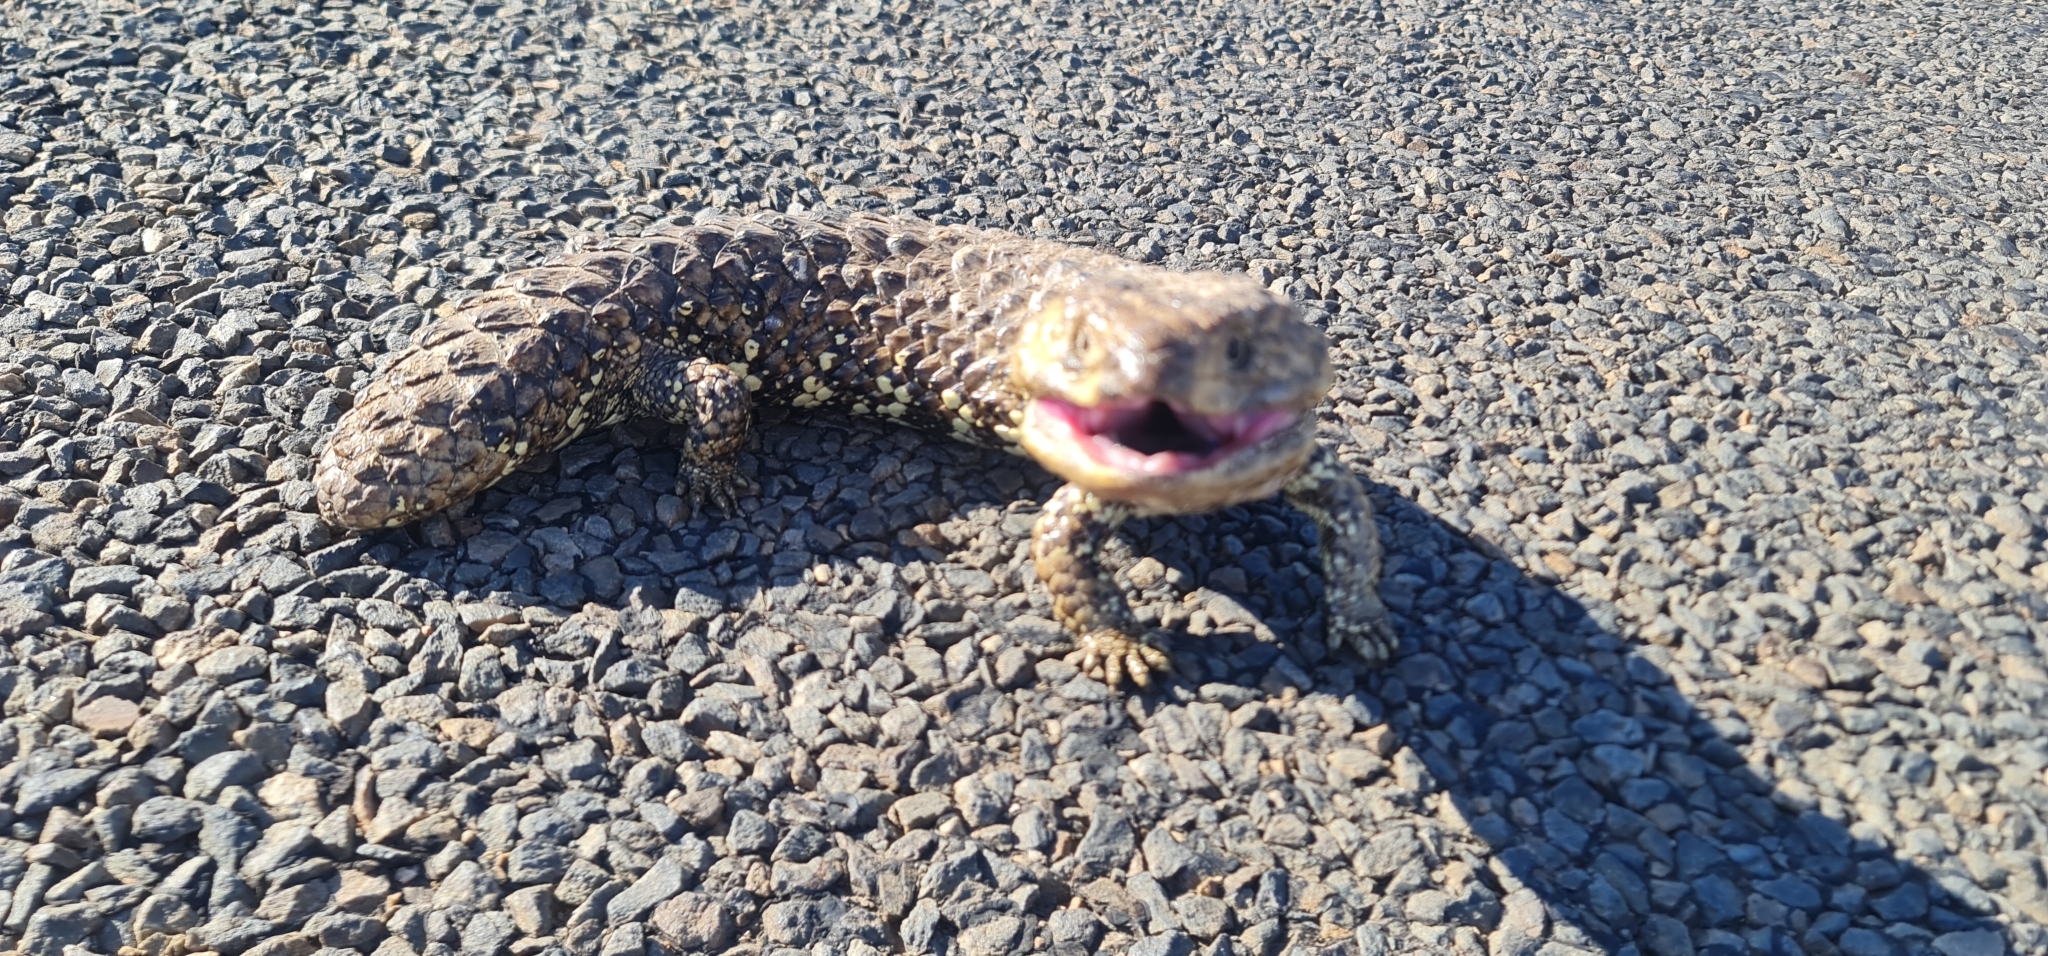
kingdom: Animalia
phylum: Chordata
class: Squamata
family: Scincidae
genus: Tiliqua
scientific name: Tiliqua rugosa
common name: Pinecone lizard
